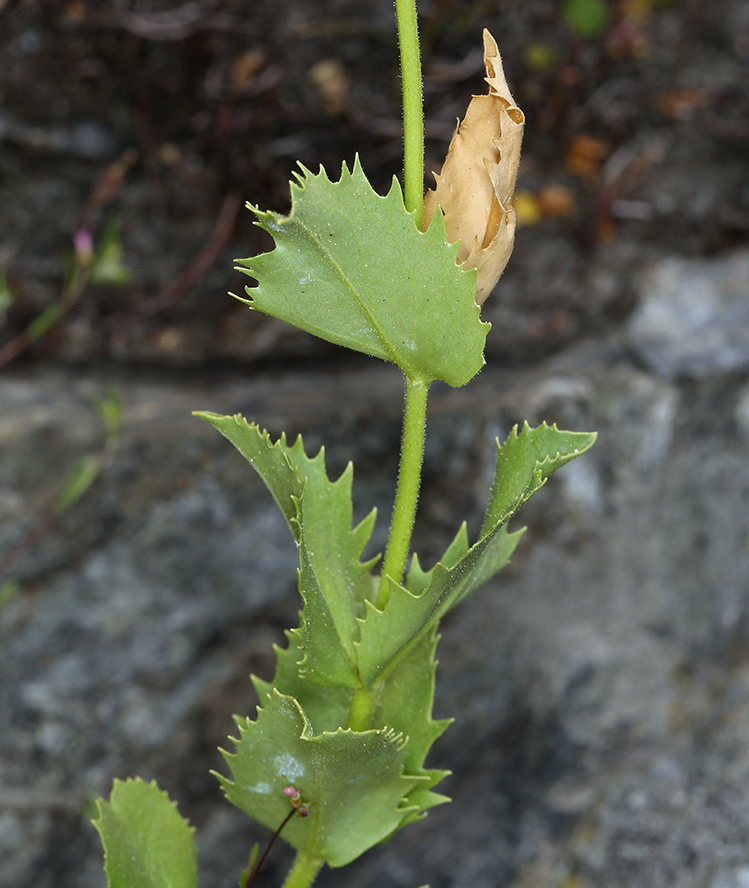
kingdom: Plantae
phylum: Tracheophyta
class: Magnoliopsida
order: Lamiales
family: Plantaginaceae
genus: Penstemon
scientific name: Penstemon deustus
